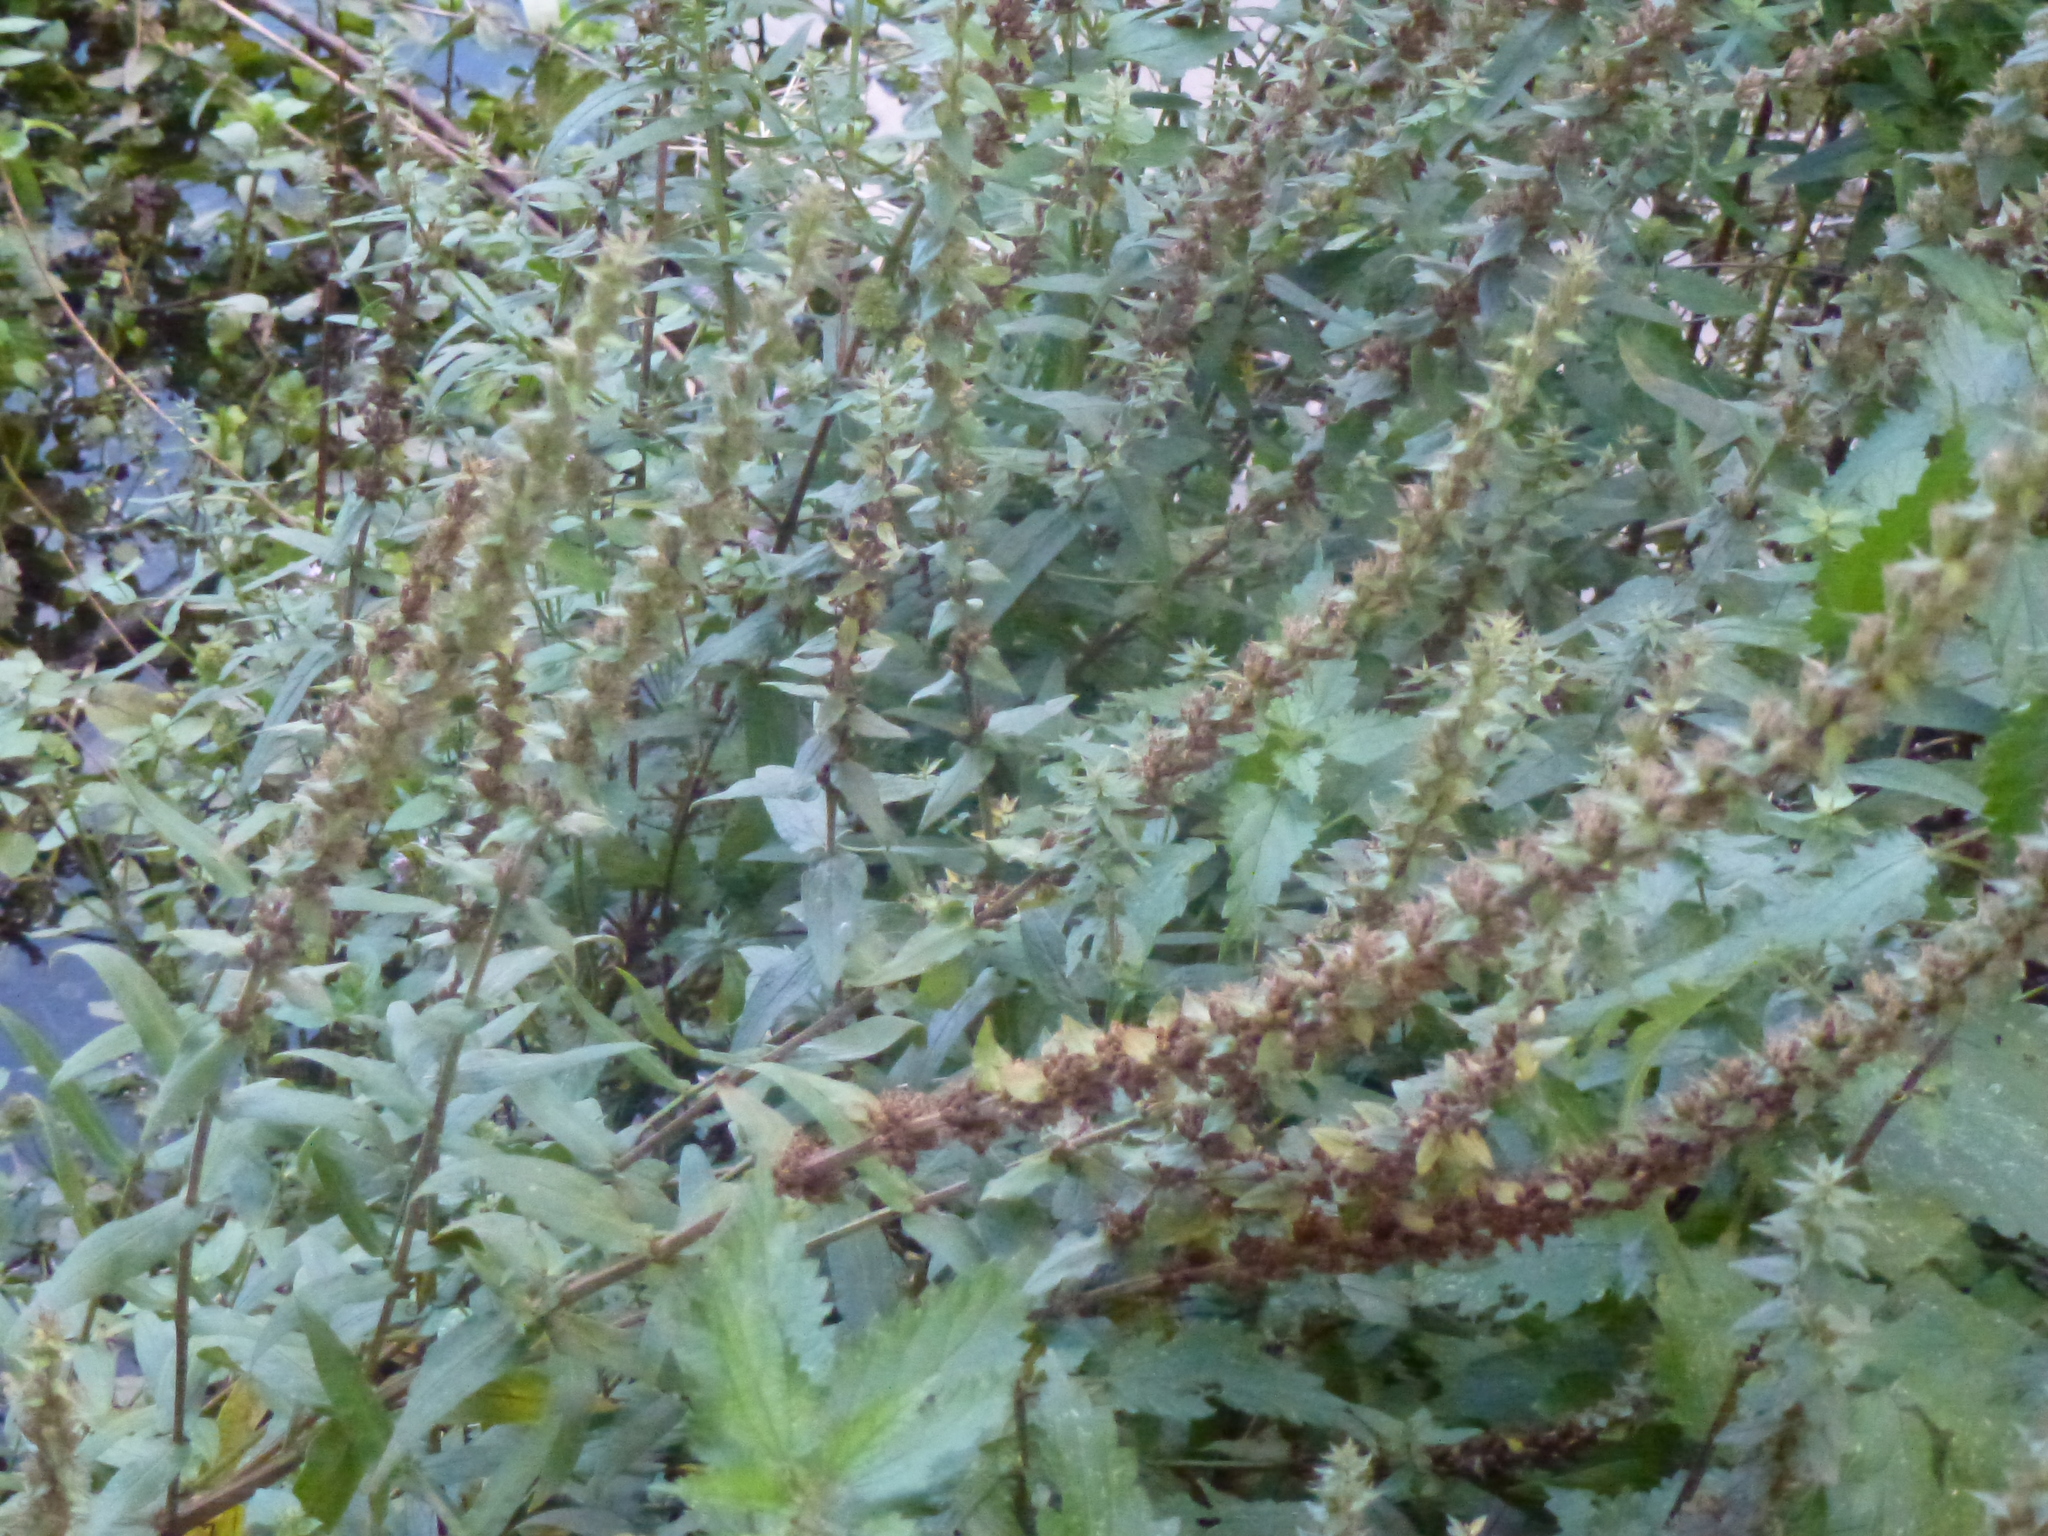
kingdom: Plantae
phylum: Tracheophyta
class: Magnoliopsida
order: Myrtales
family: Lythraceae
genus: Lythrum
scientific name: Lythrum salicaria
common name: Purple loosestrife
